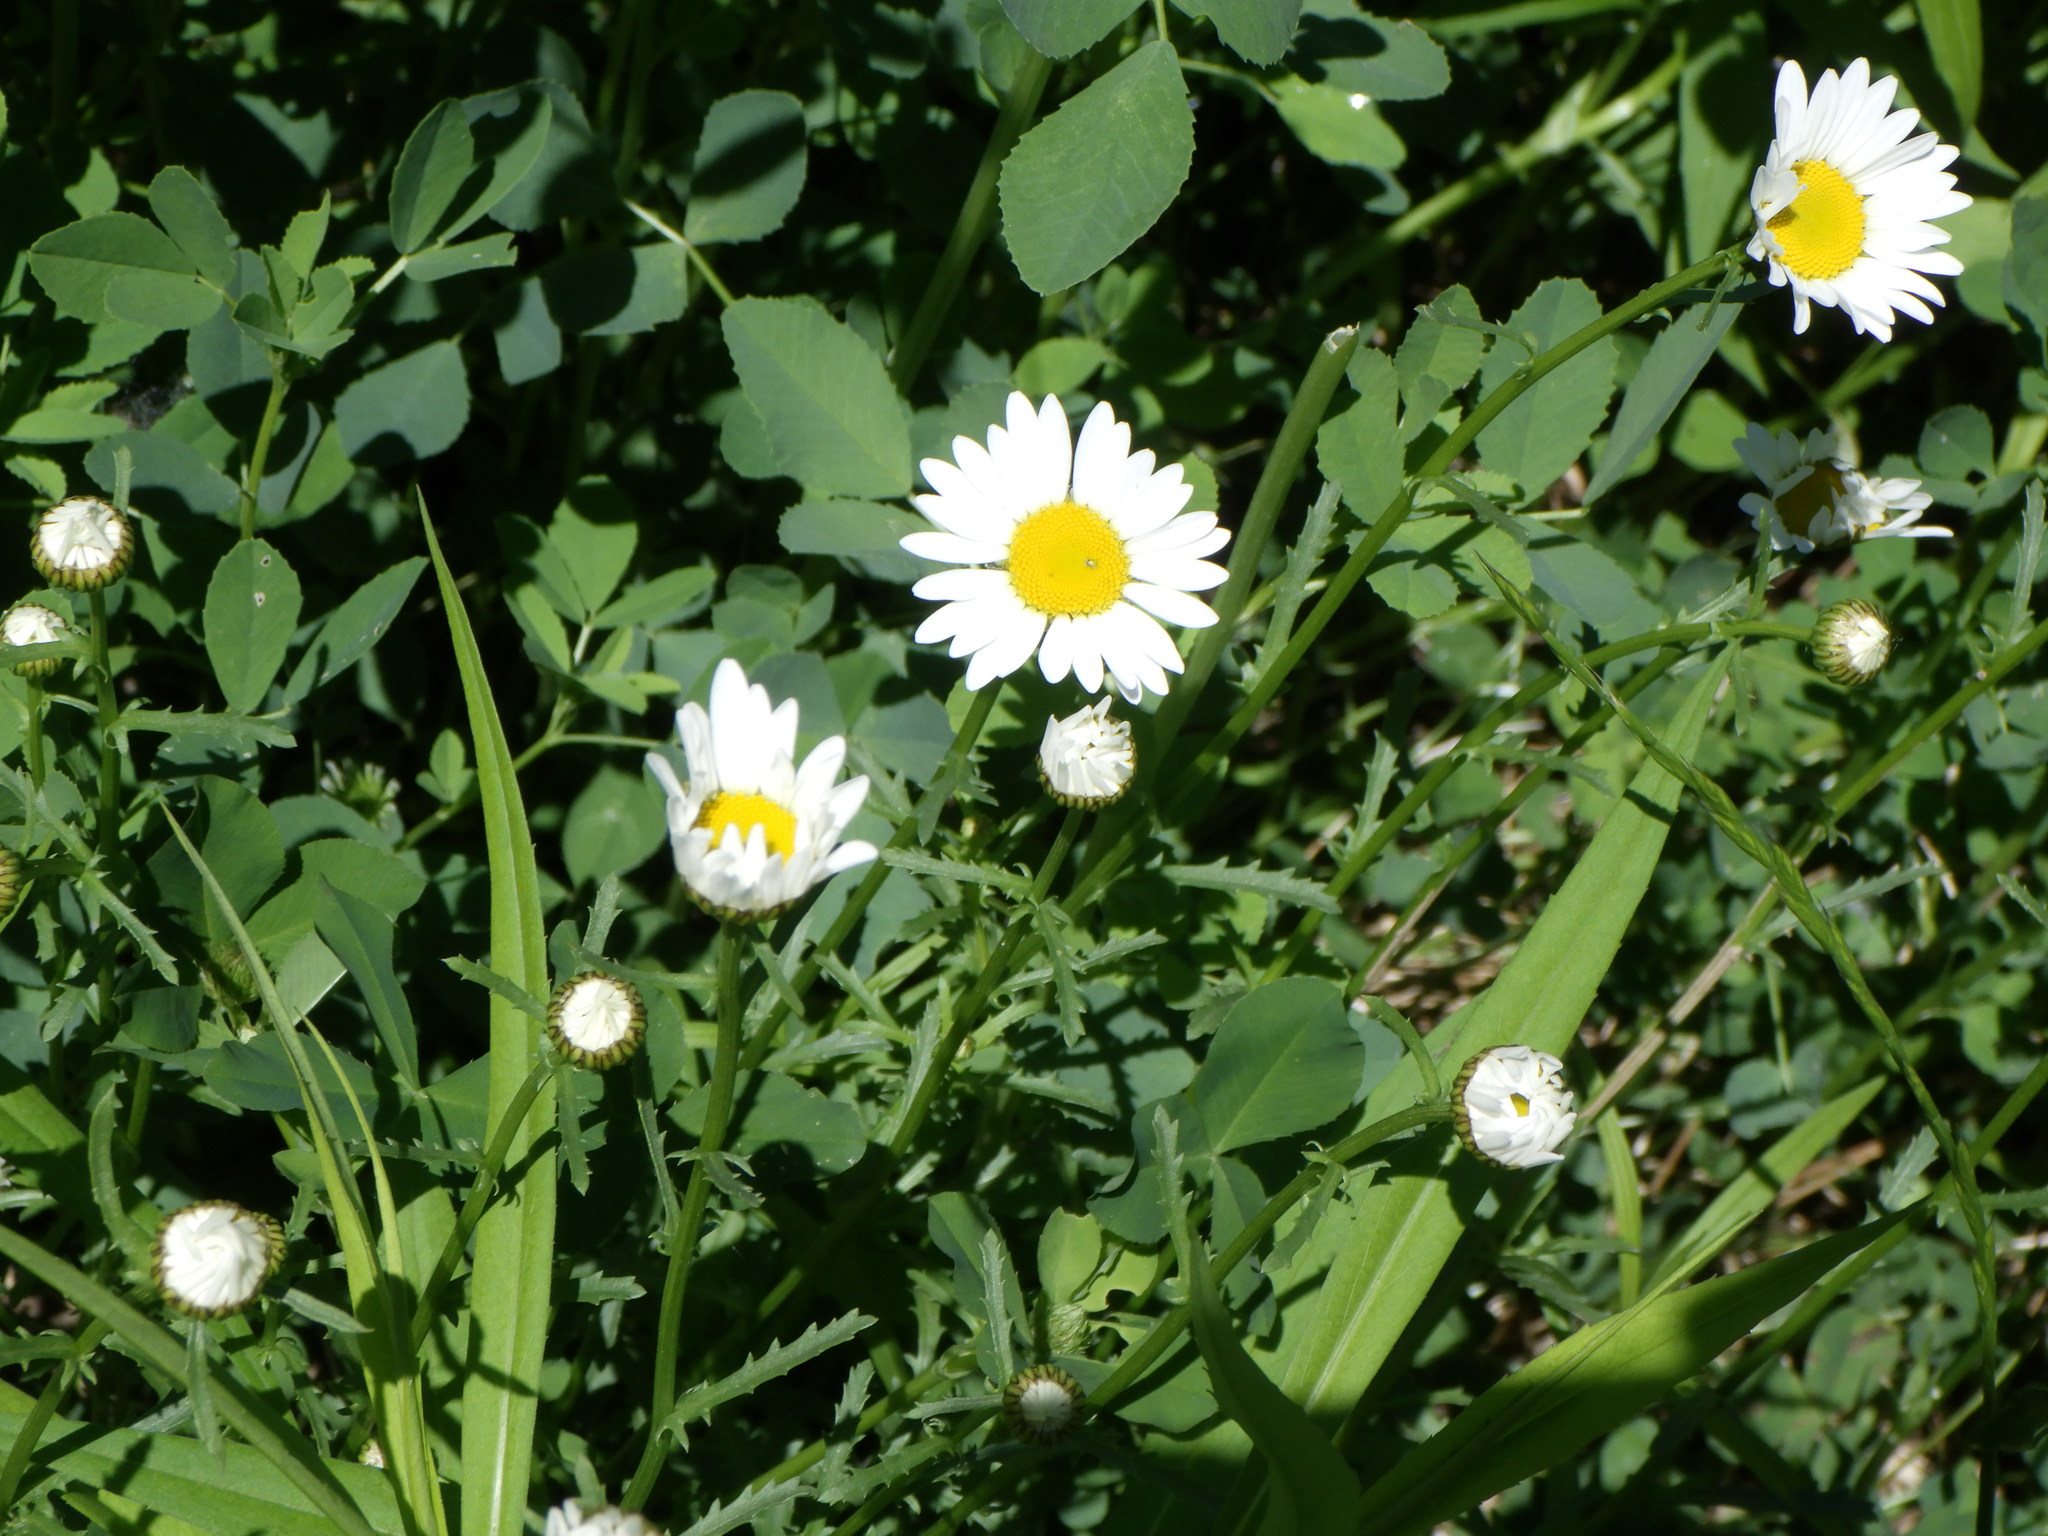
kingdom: Plantae
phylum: Tracheophyta
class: Magnoliopsida
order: Asterales
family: Asteraceae
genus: Leucanthemum
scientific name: Leucanthemum vulgare
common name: Oxeye daisy
